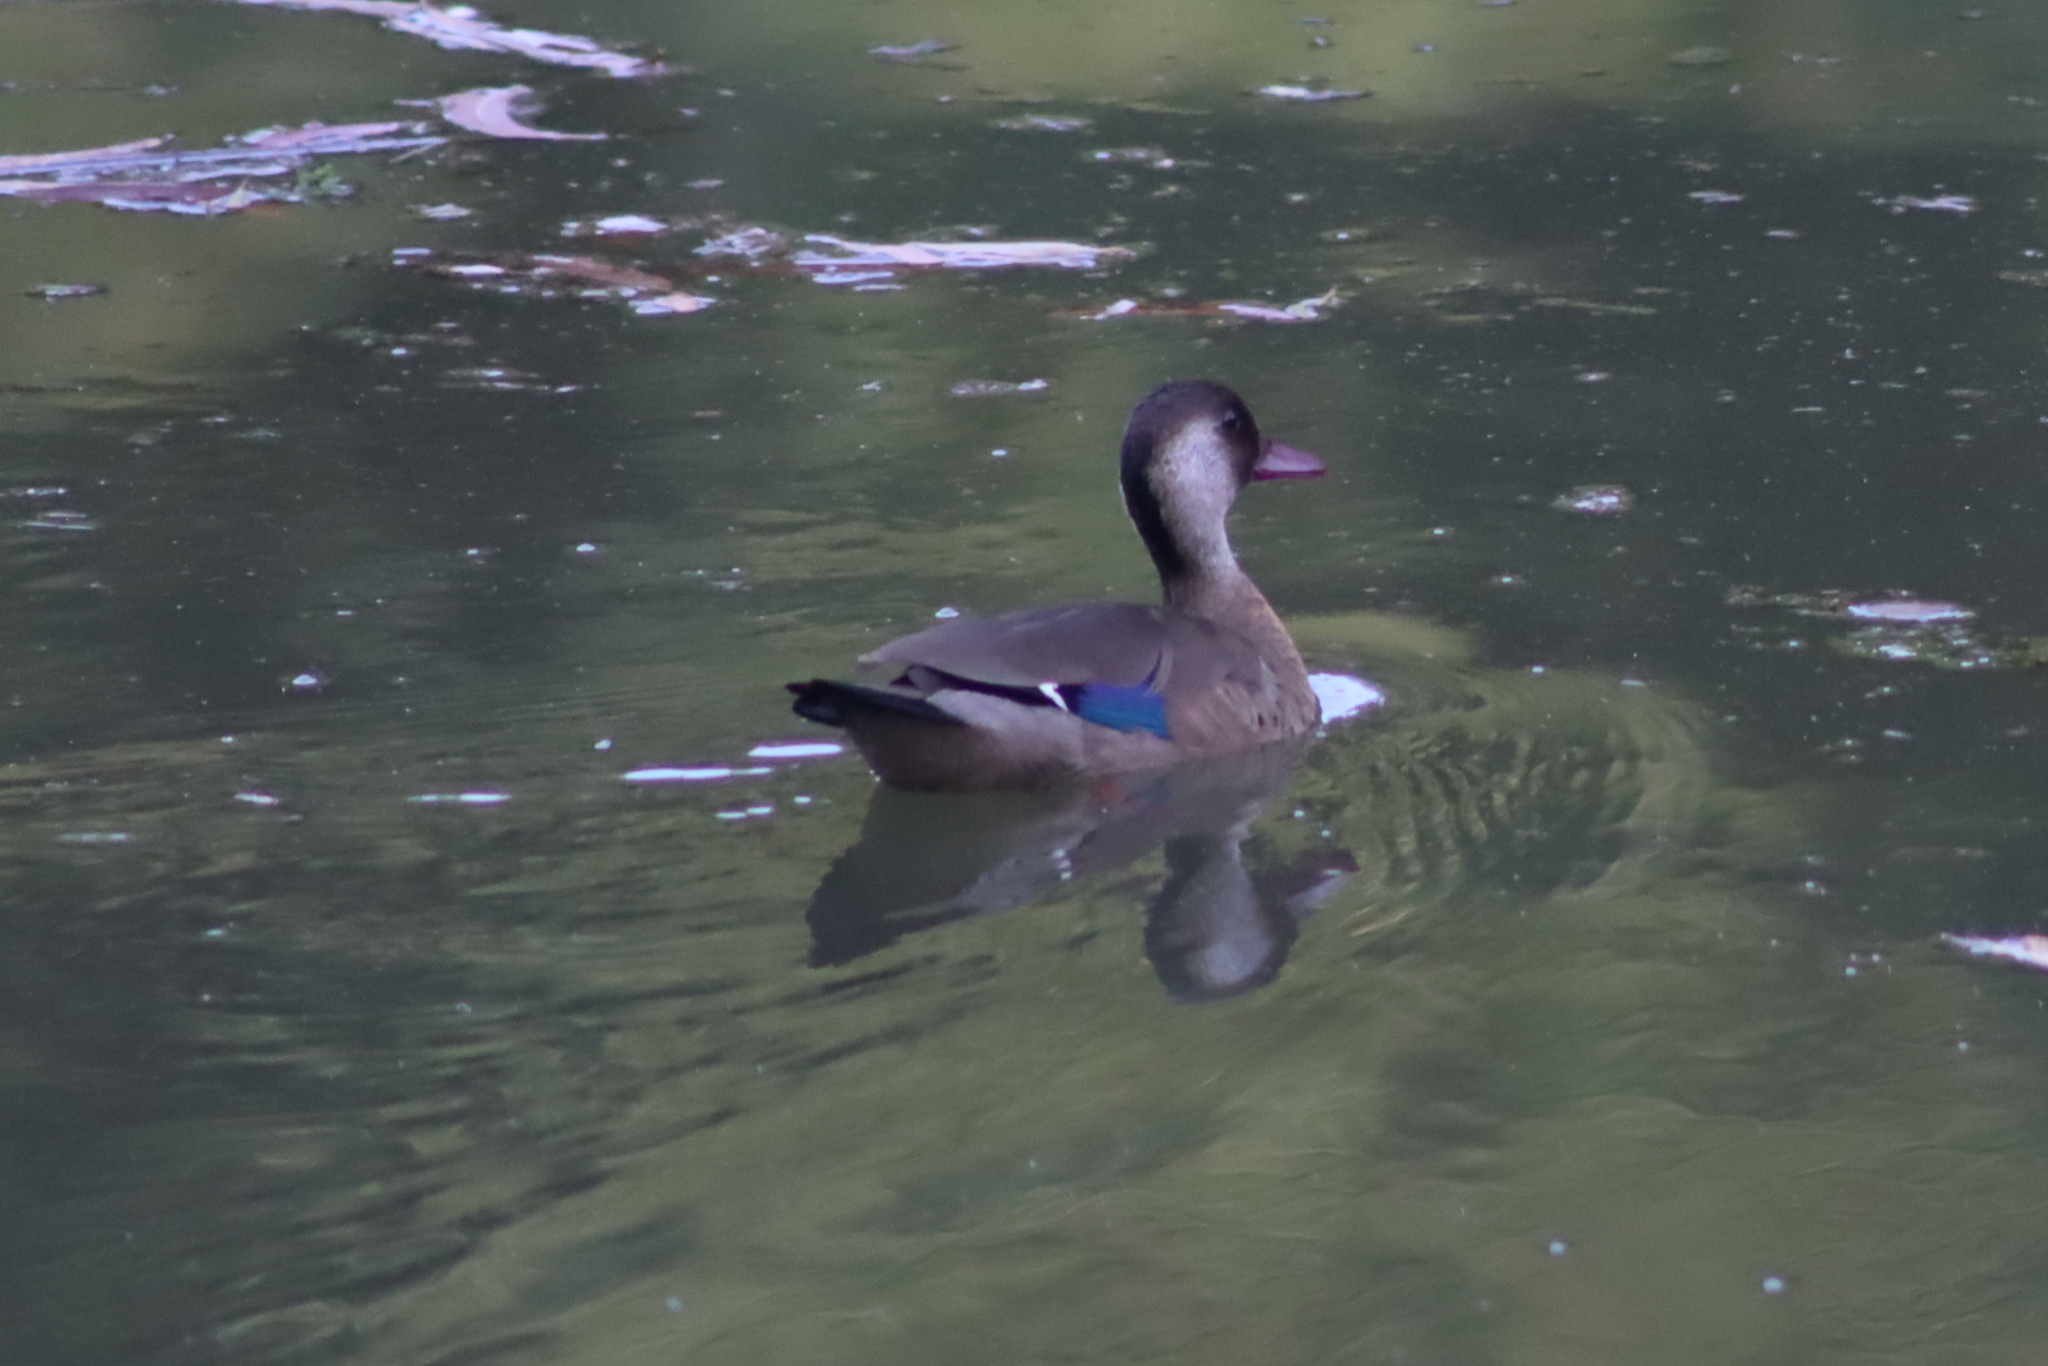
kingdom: Animalia
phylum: Chordata
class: Aves
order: Anseriformes
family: Anatidae
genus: Amazonetta
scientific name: Amazonetta brasiliensis
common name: Brazilian teal
